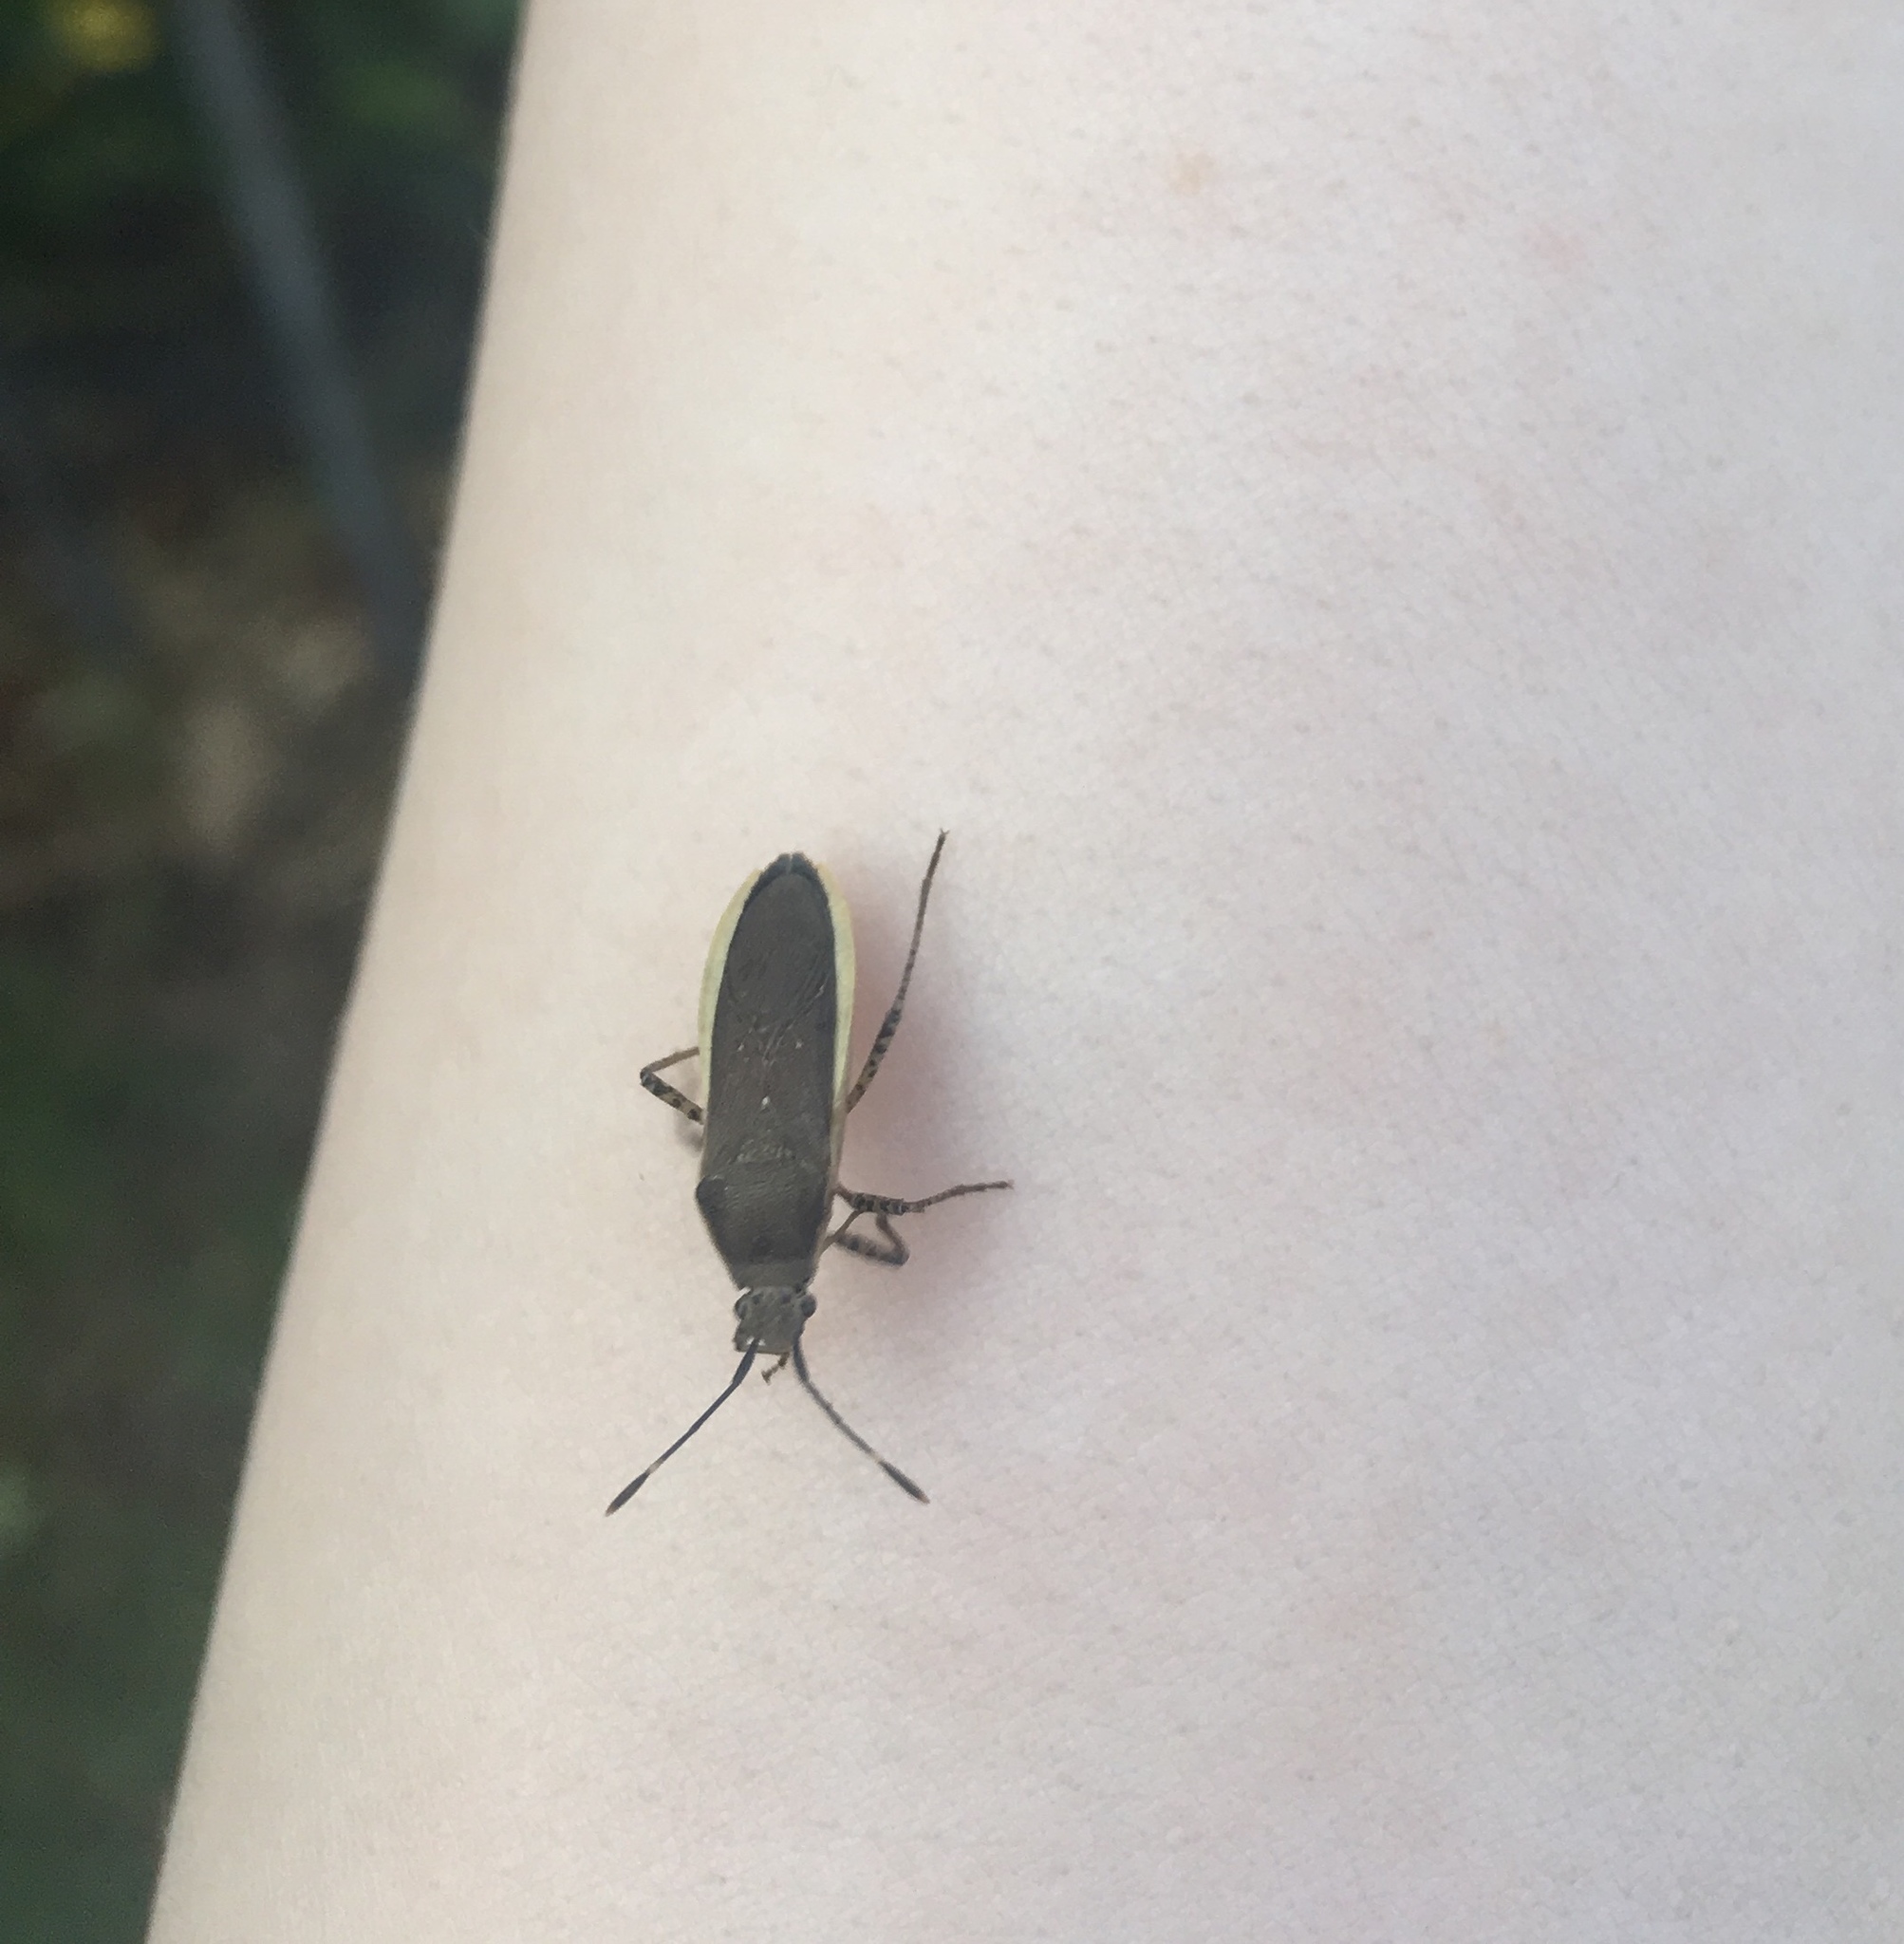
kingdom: Animalia
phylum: Arthropoda
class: Insecta
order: Hemiptera
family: Coreidae
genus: Catorhintha
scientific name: Catorhintha texana
